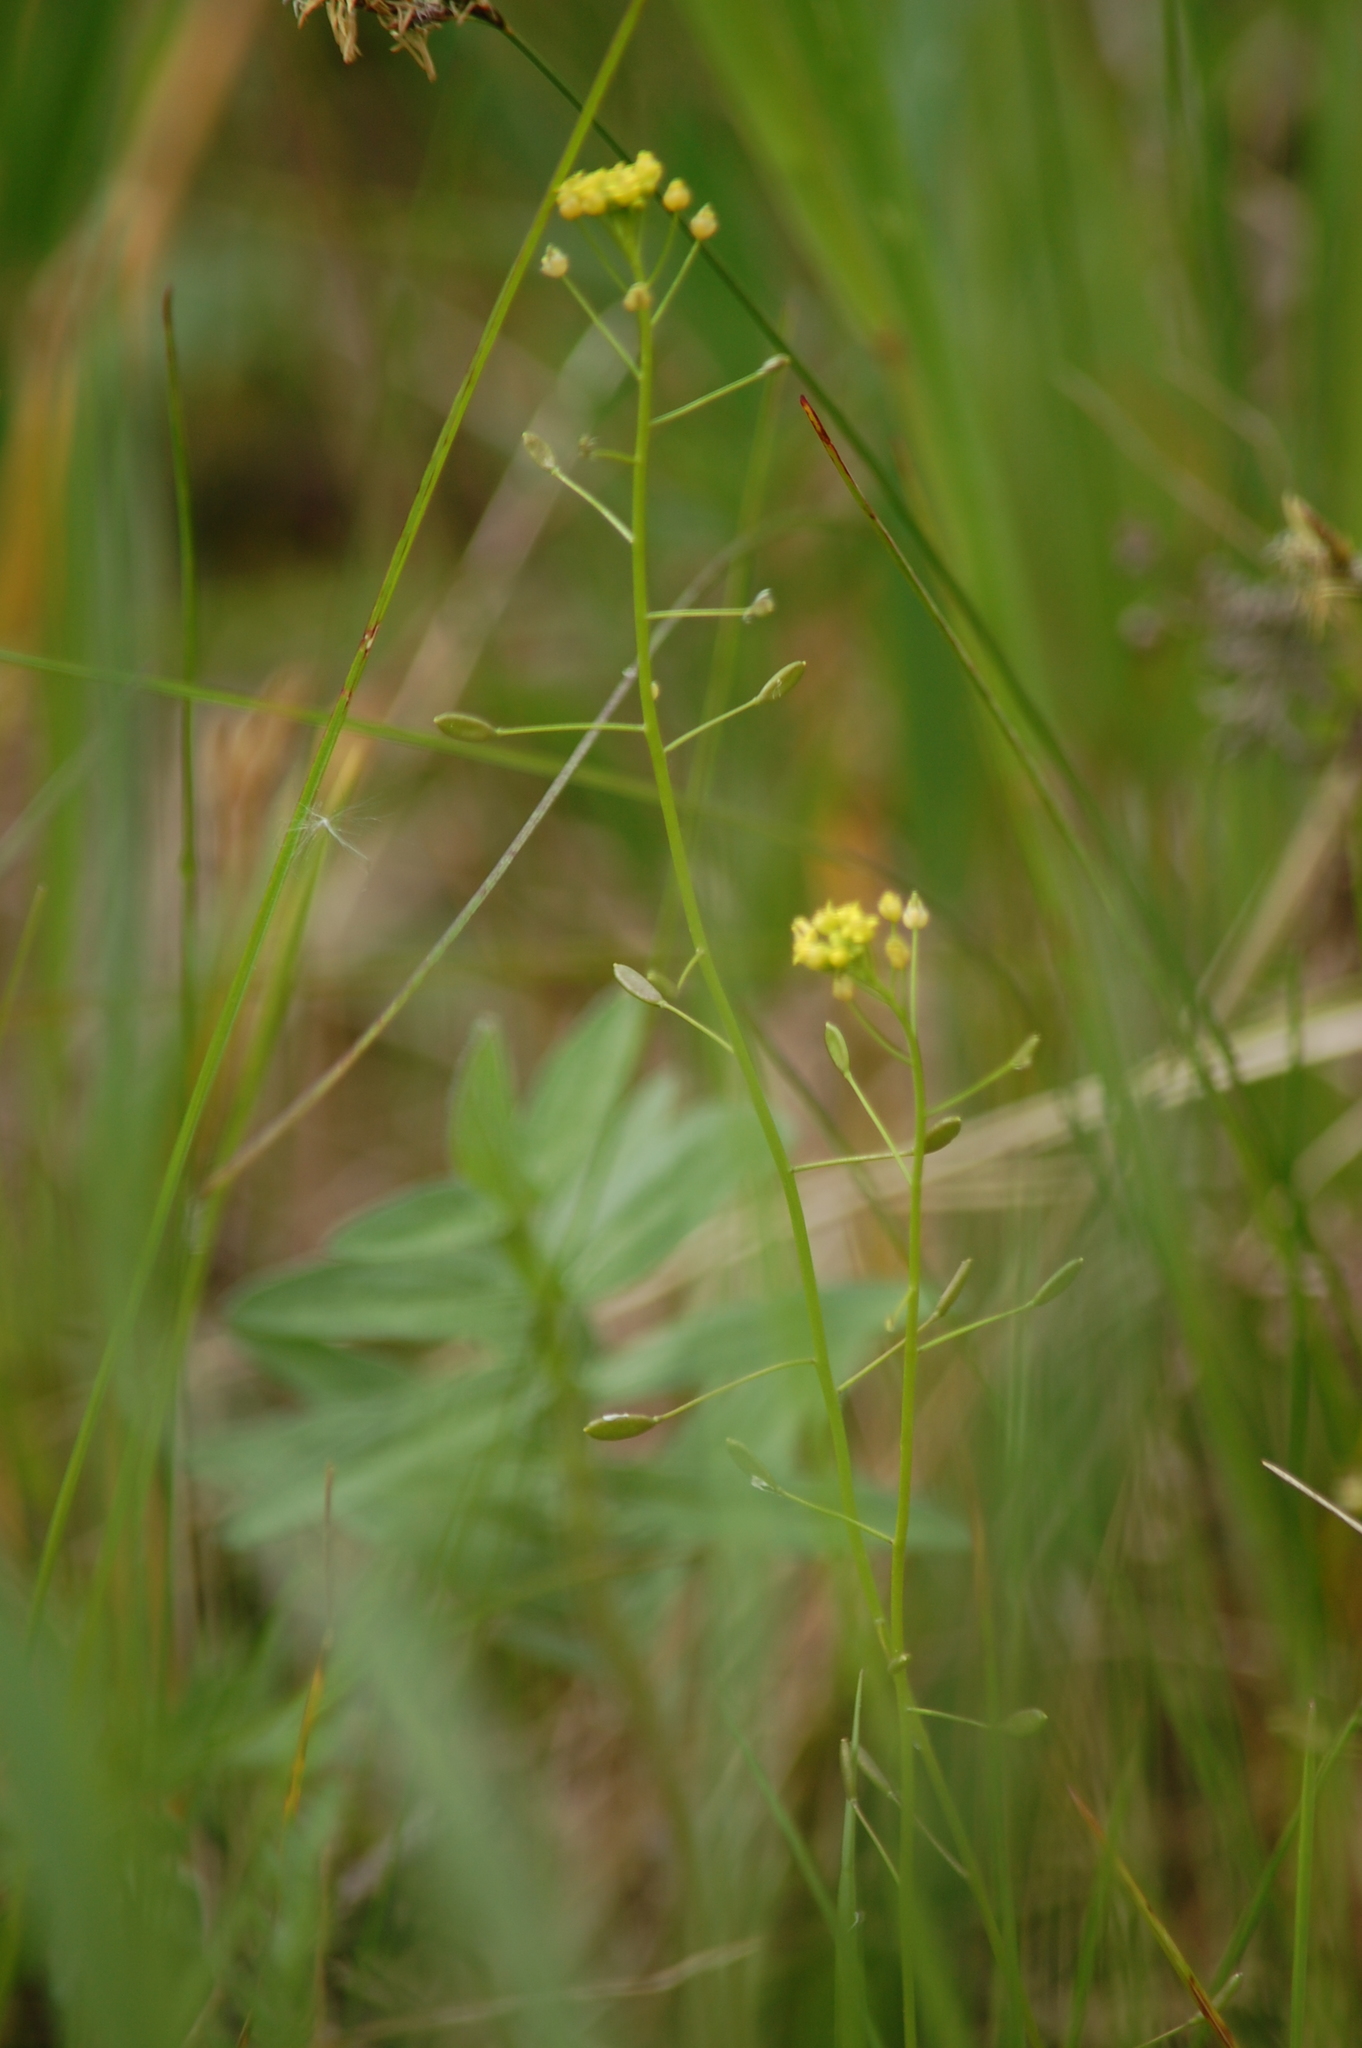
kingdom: Plantae
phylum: Tracheophyta
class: Magnoliopsida
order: Brassicales
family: Brassicaceae
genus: Draba
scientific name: Draba nemorosa
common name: Wood whitlow-grass
